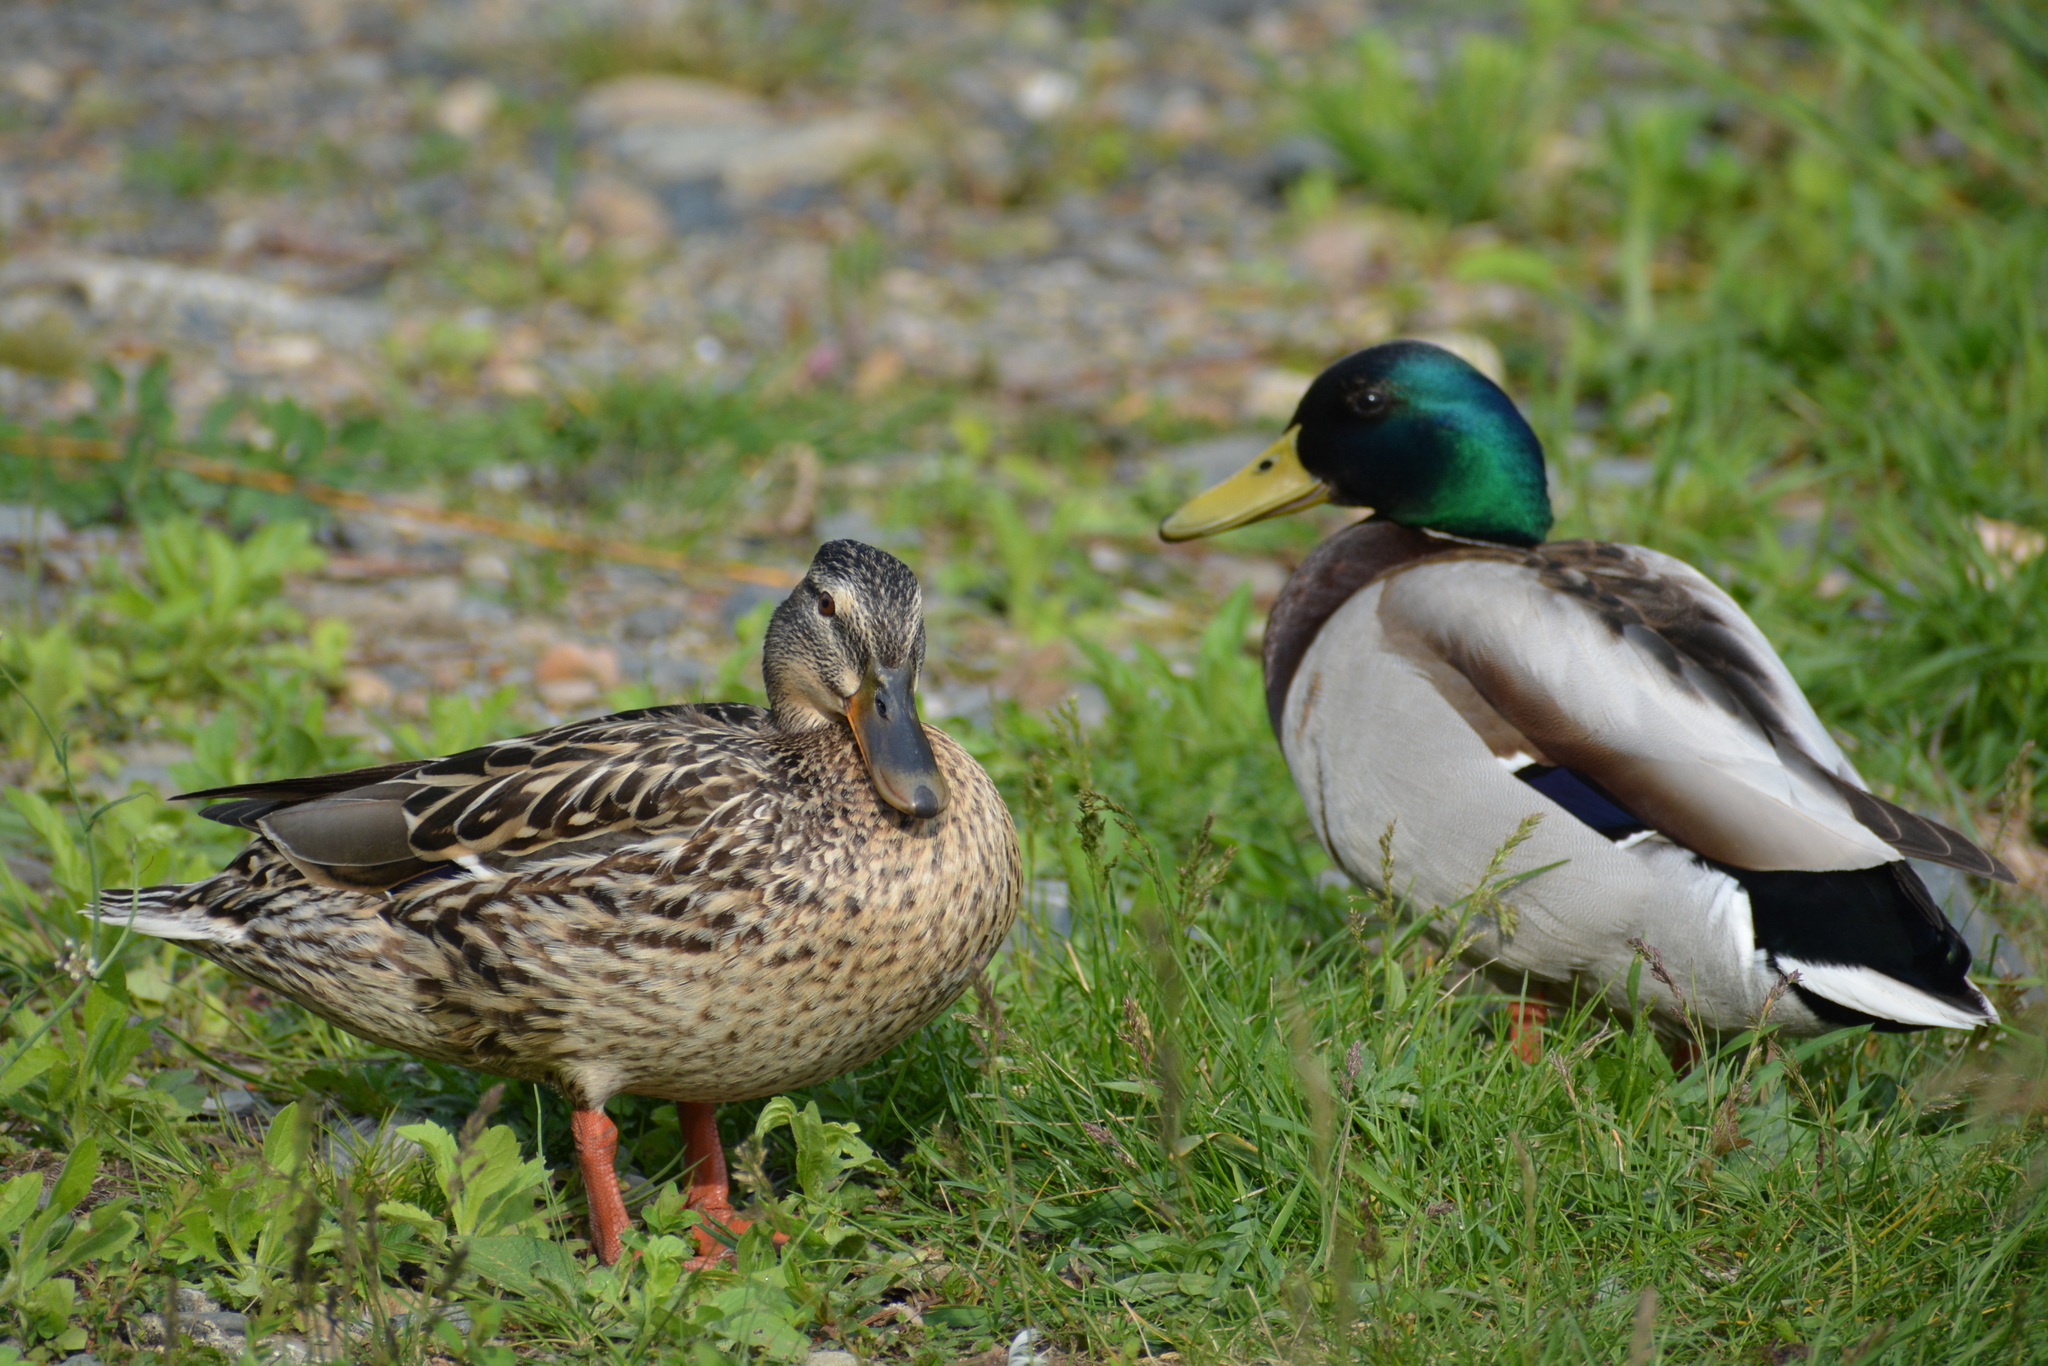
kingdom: Animalia
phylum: Chordata
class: Aves
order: Anseriformes
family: Anatidae
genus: Anas
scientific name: Anas platyrhynchos
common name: Mallard
